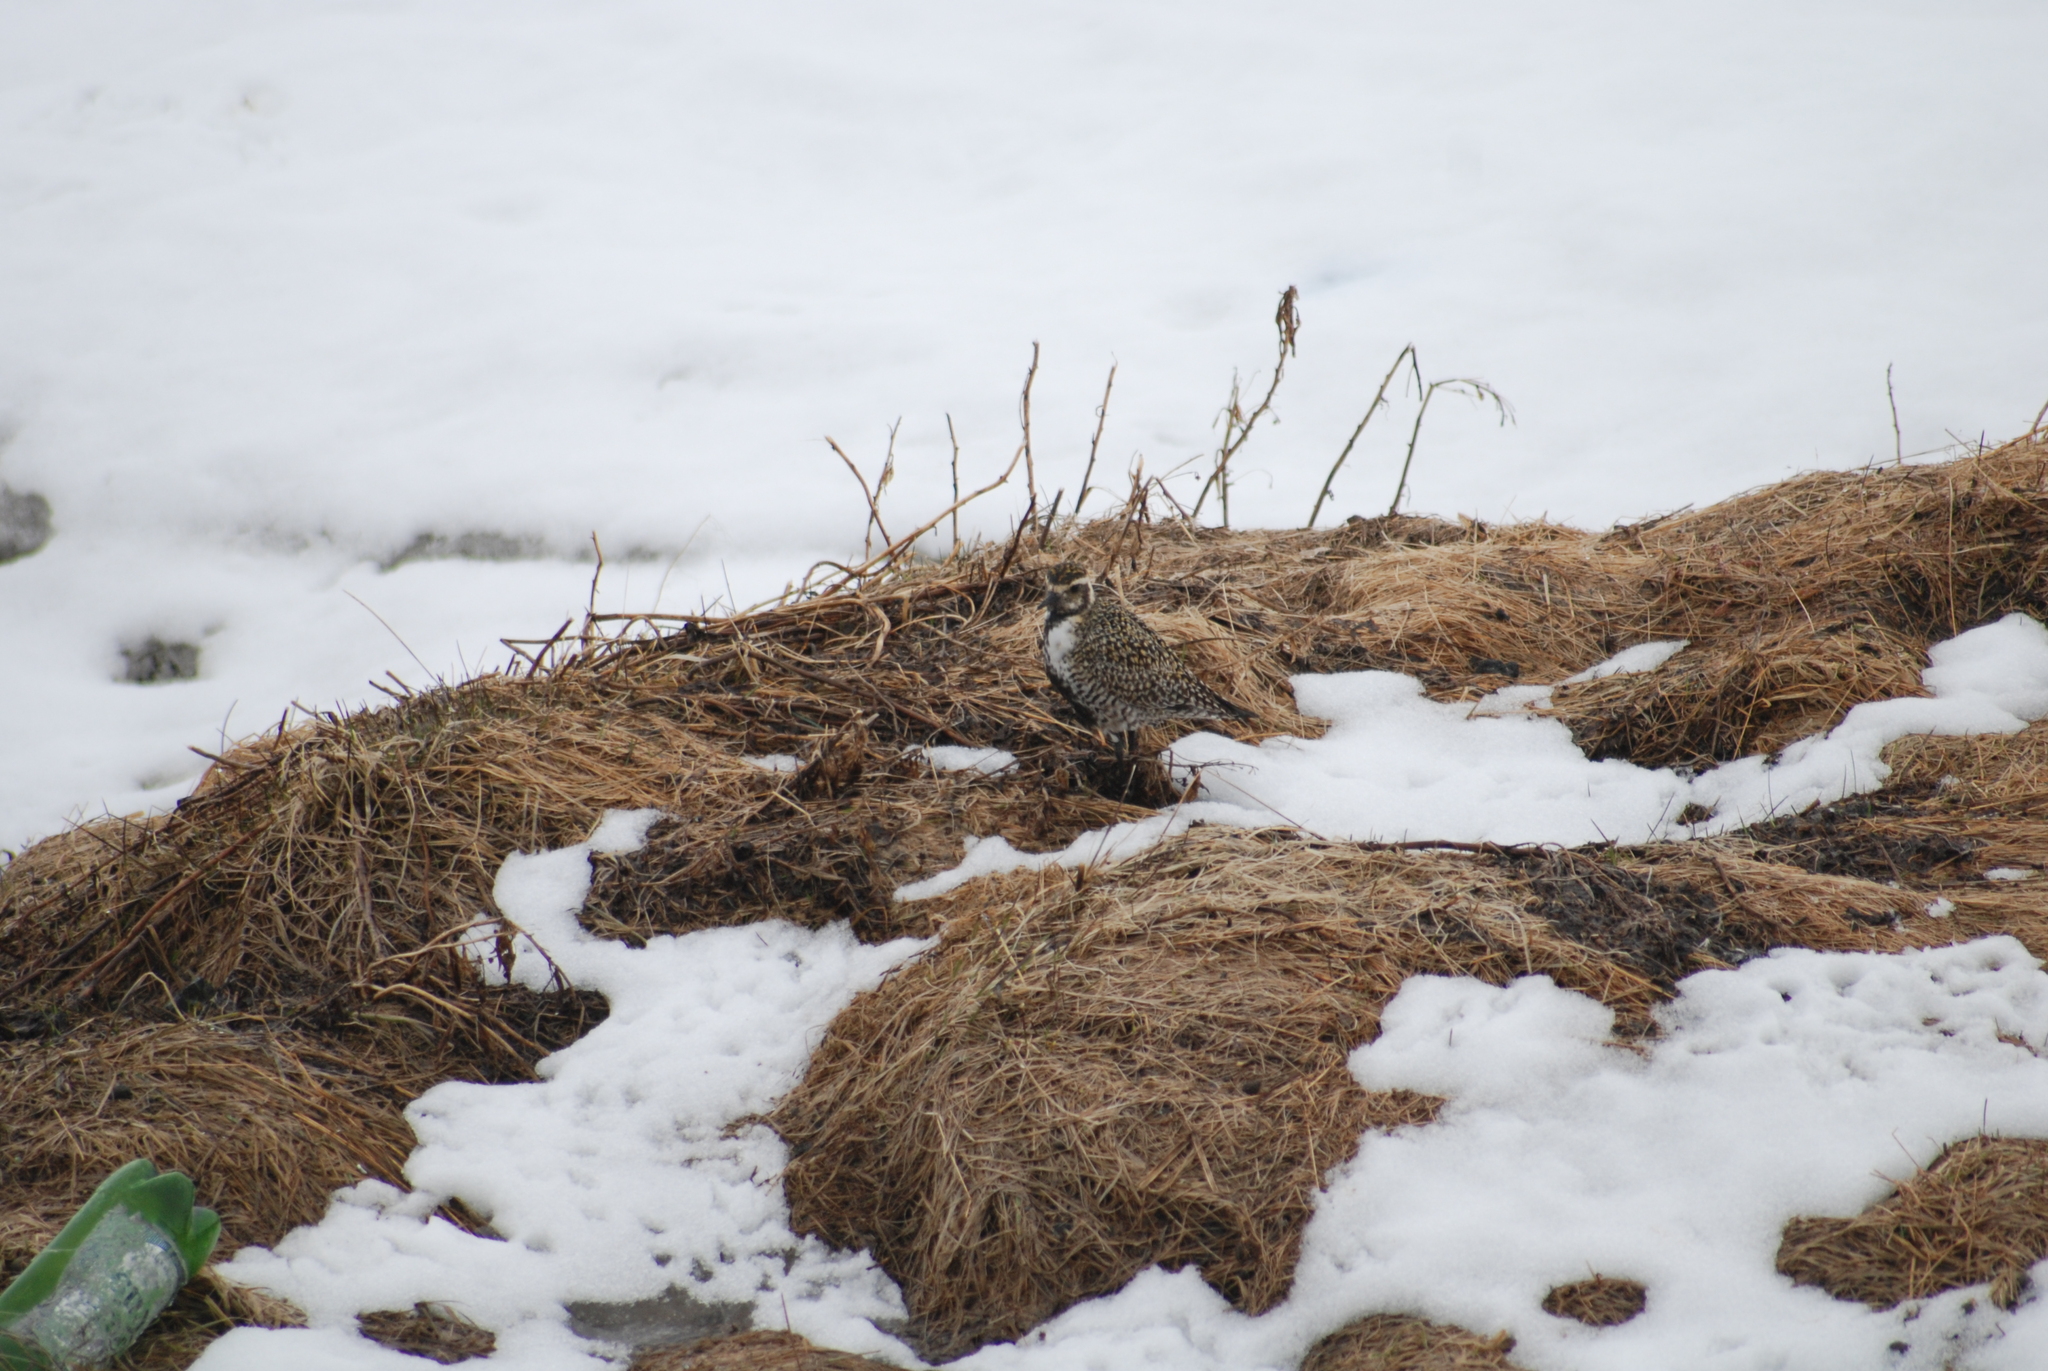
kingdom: Animalia
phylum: Chordata
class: Aves
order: Charadriiformes
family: Charadriidae
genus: Pluvialis
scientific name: Pluvialis fulva
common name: Pacific golden plover
